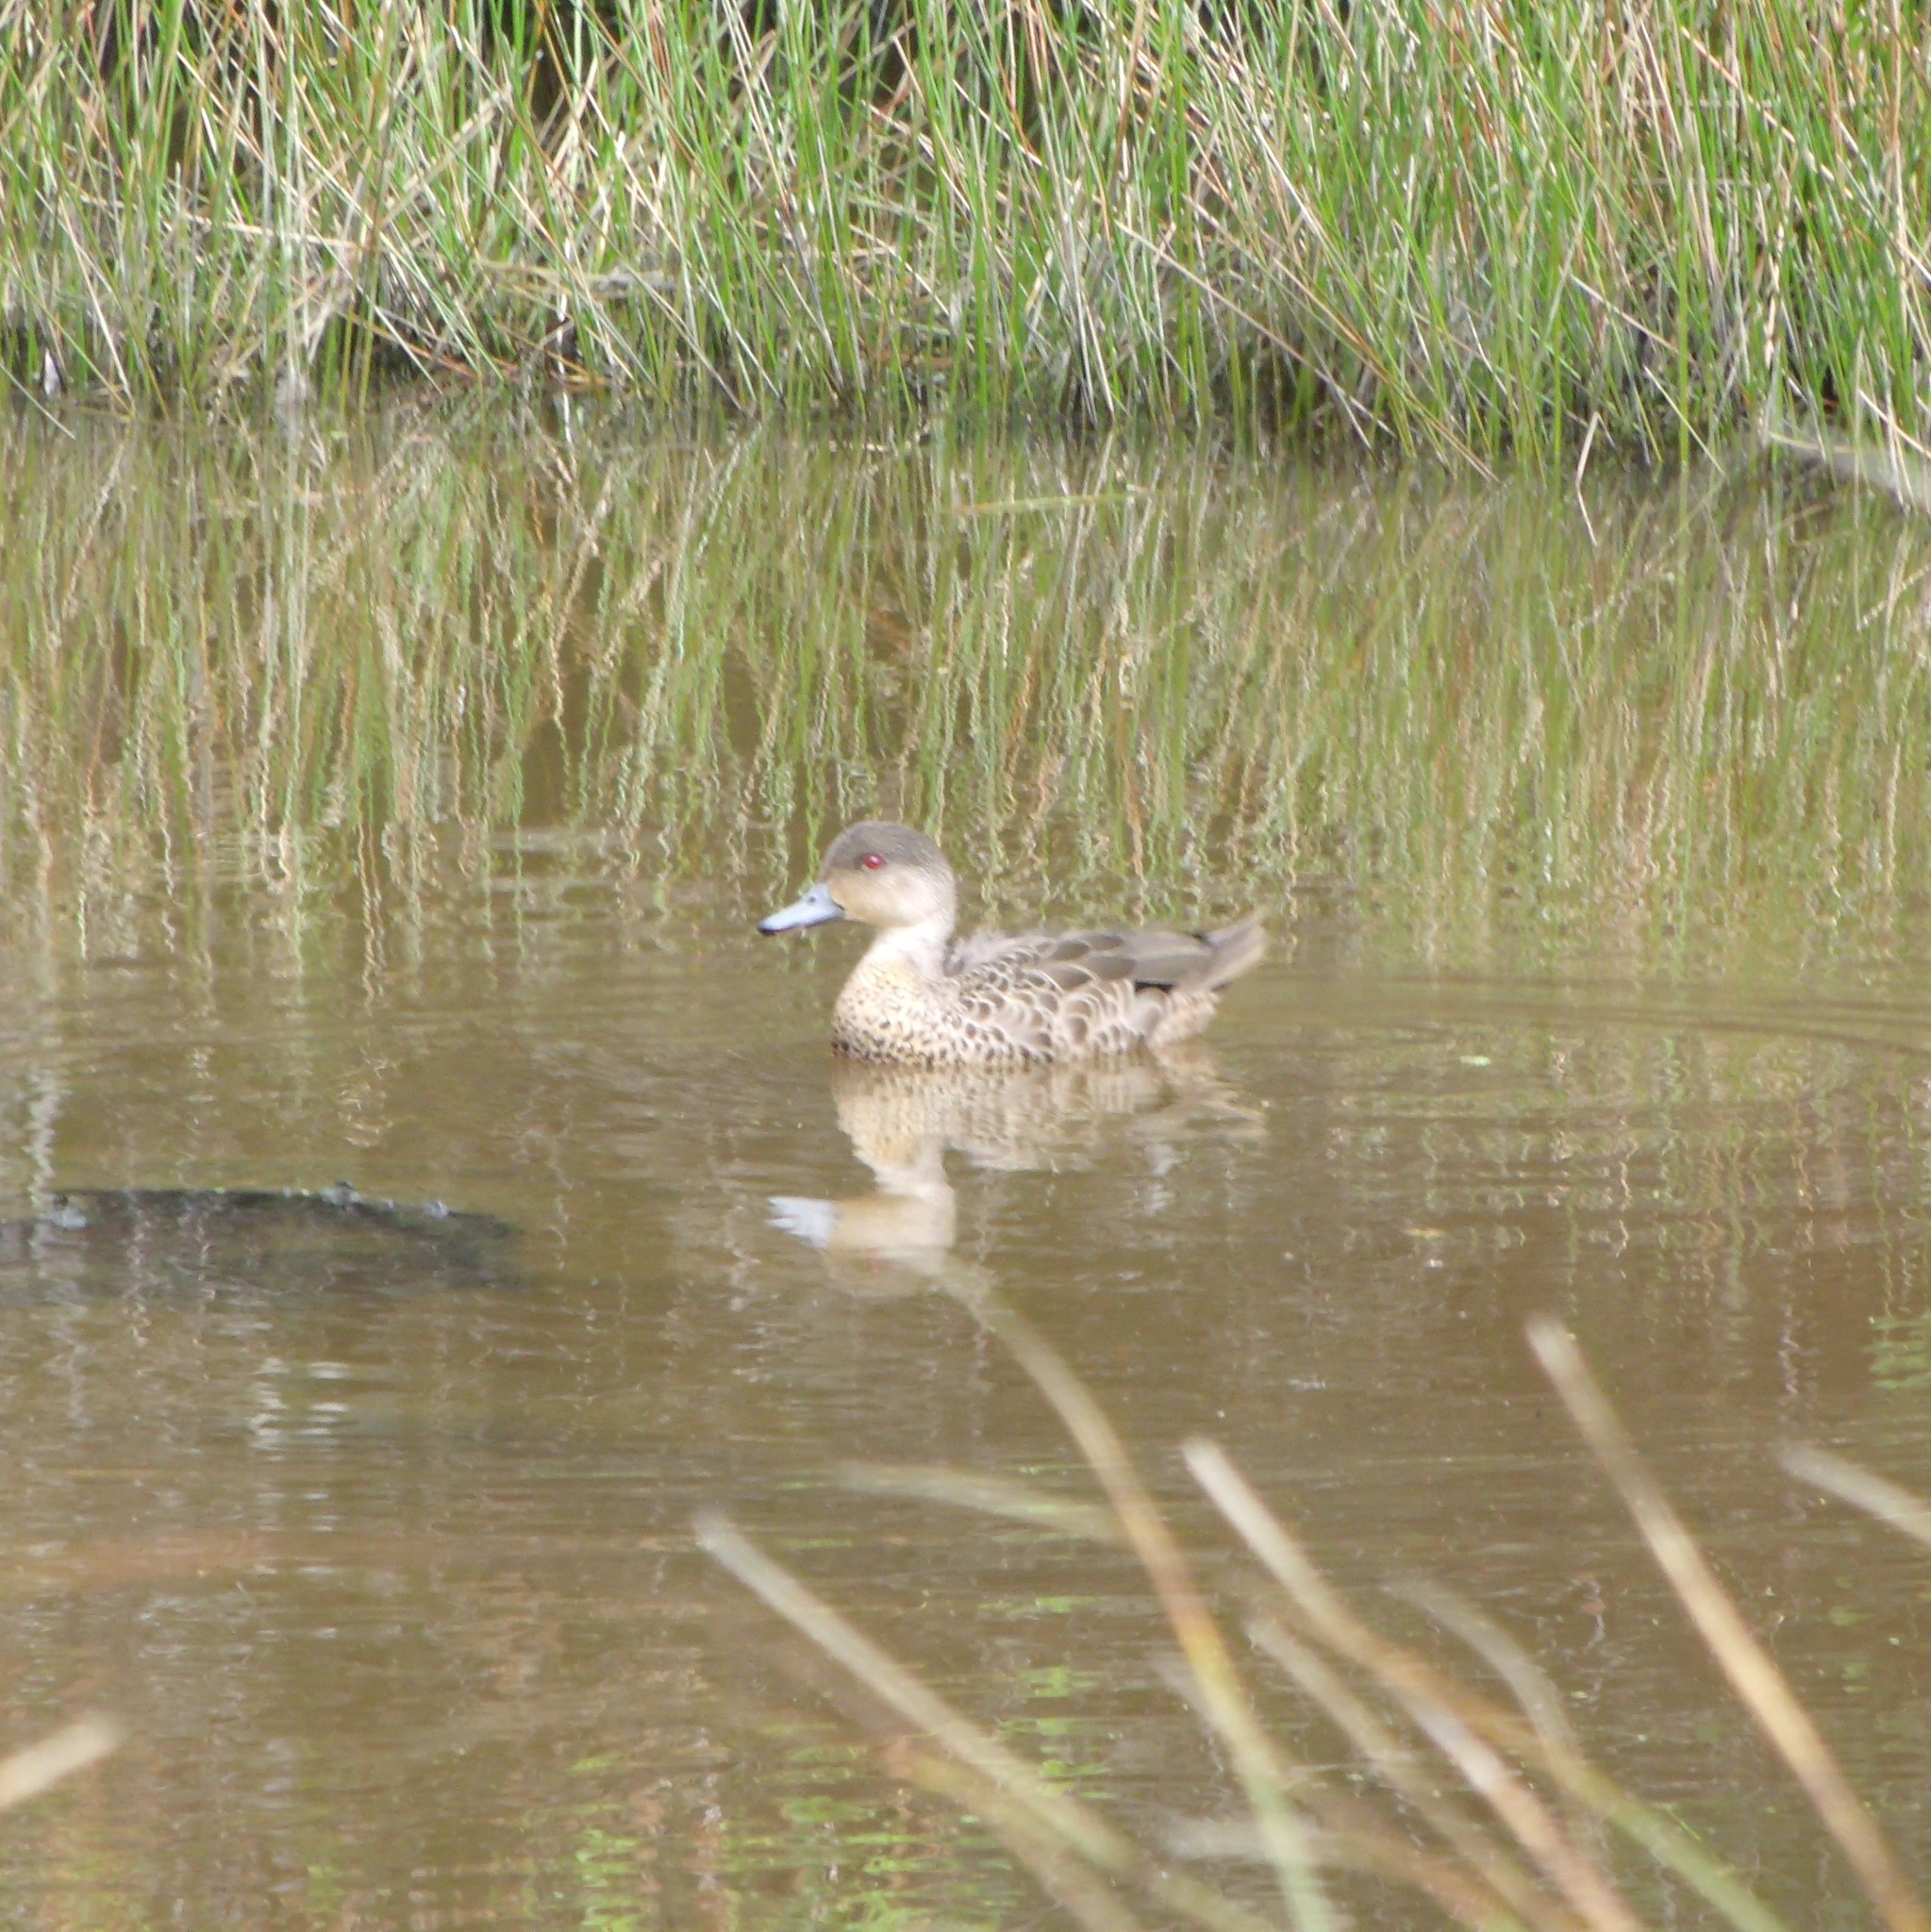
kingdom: Animalia
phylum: Chordata
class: Aves
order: Anseriformes
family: Anatidae
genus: Anas
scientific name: Anas gracilis
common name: Grey teal
